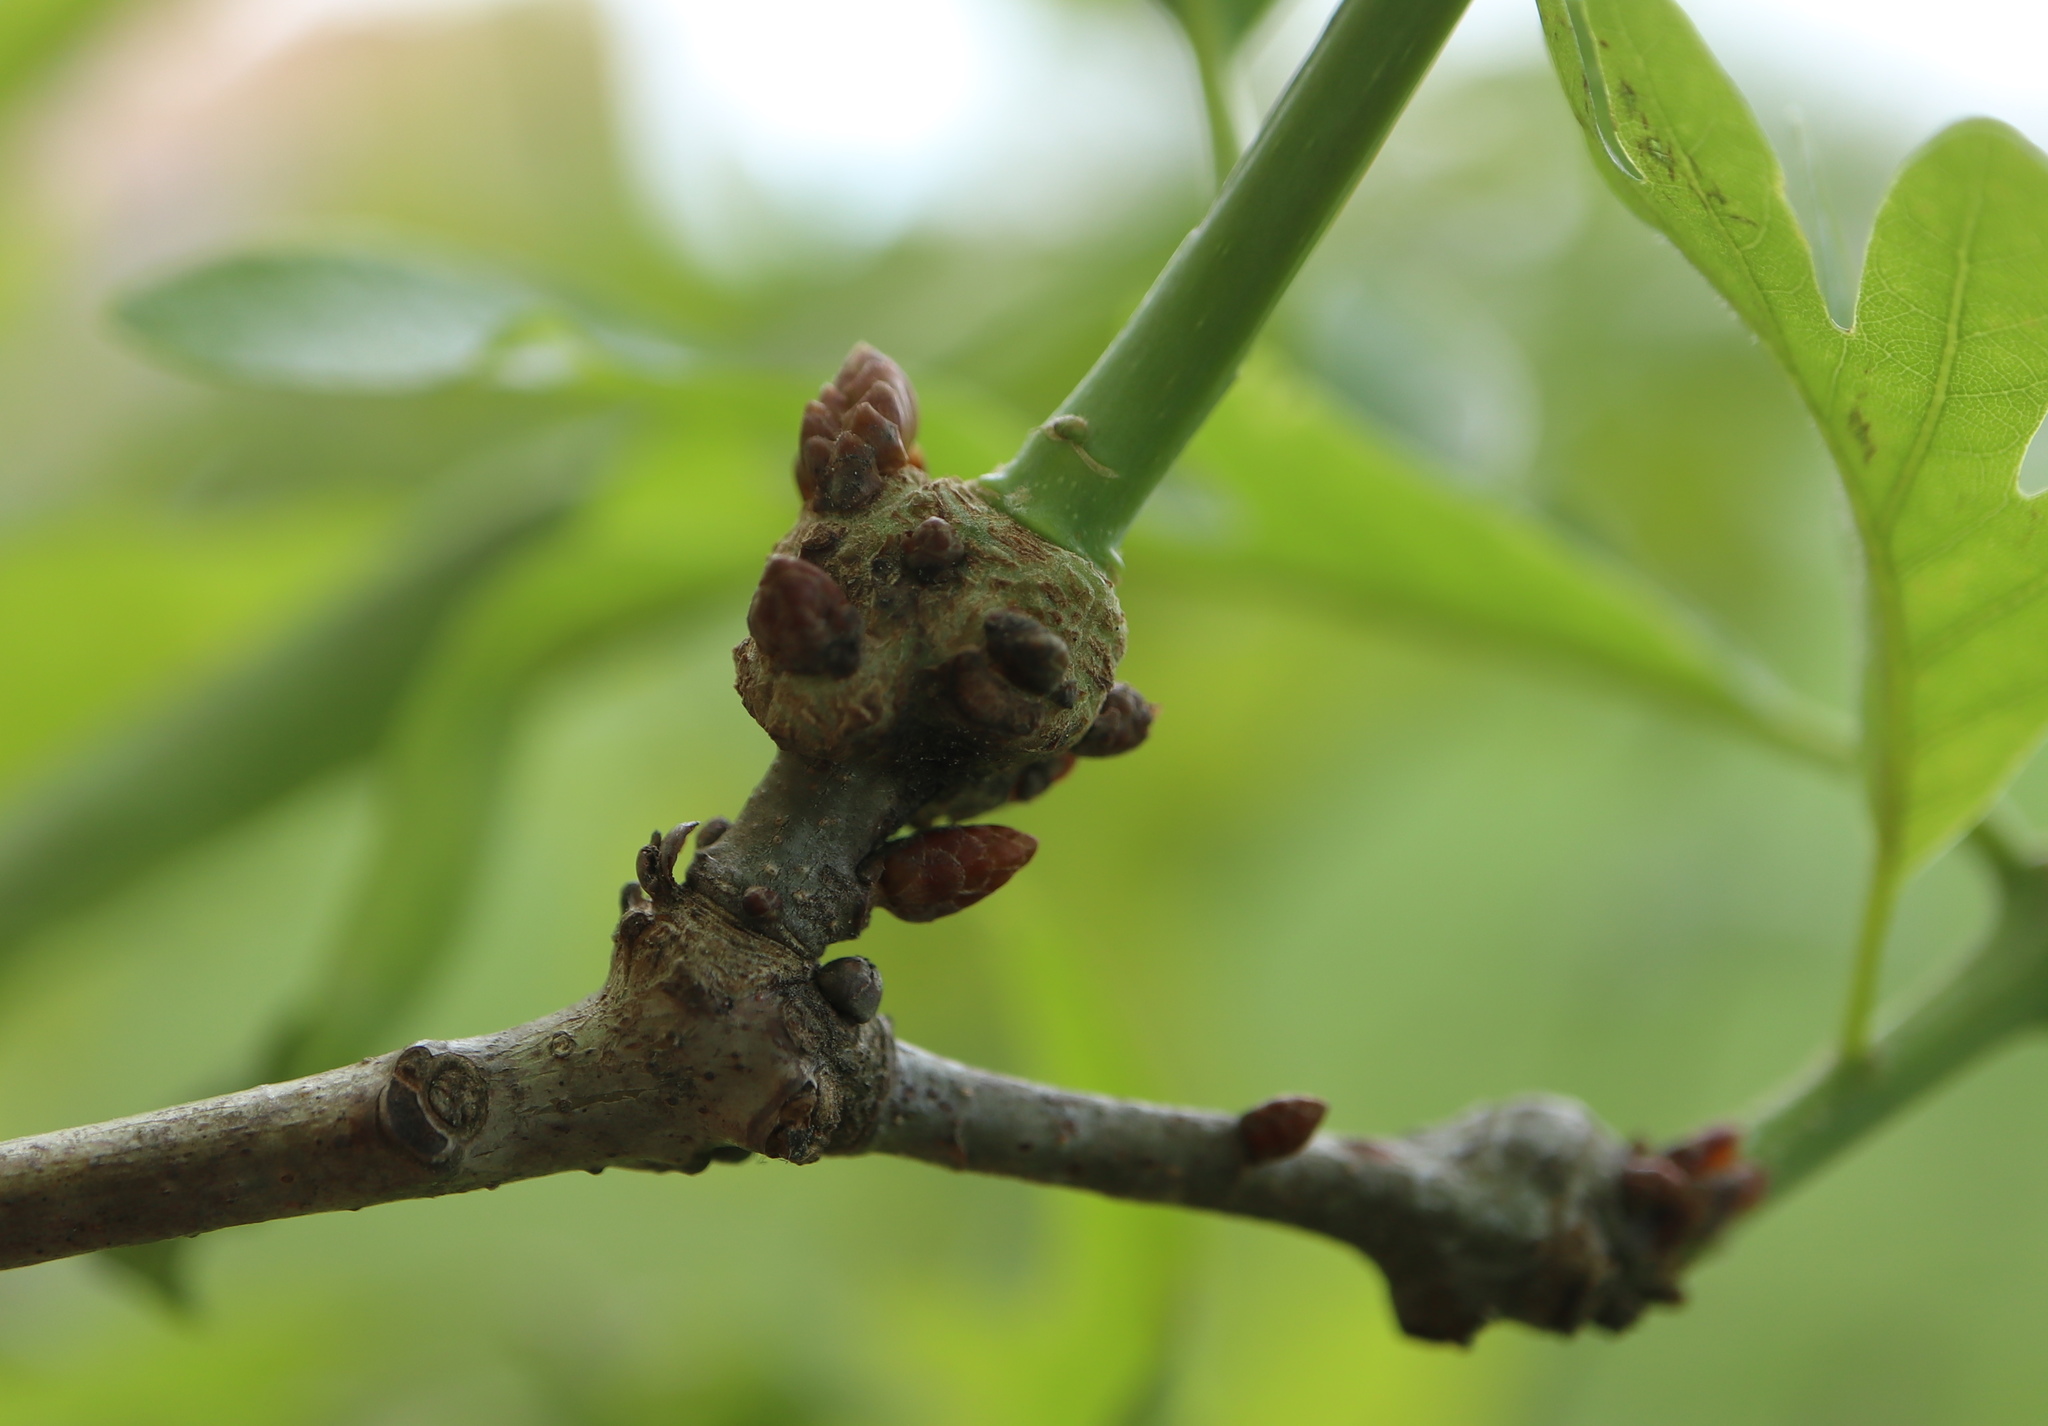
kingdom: Animalia
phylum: Arthropoda
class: Insecta
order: Hymenoptera
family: Cynipidae
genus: Loxaulus
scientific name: Loxaulus
